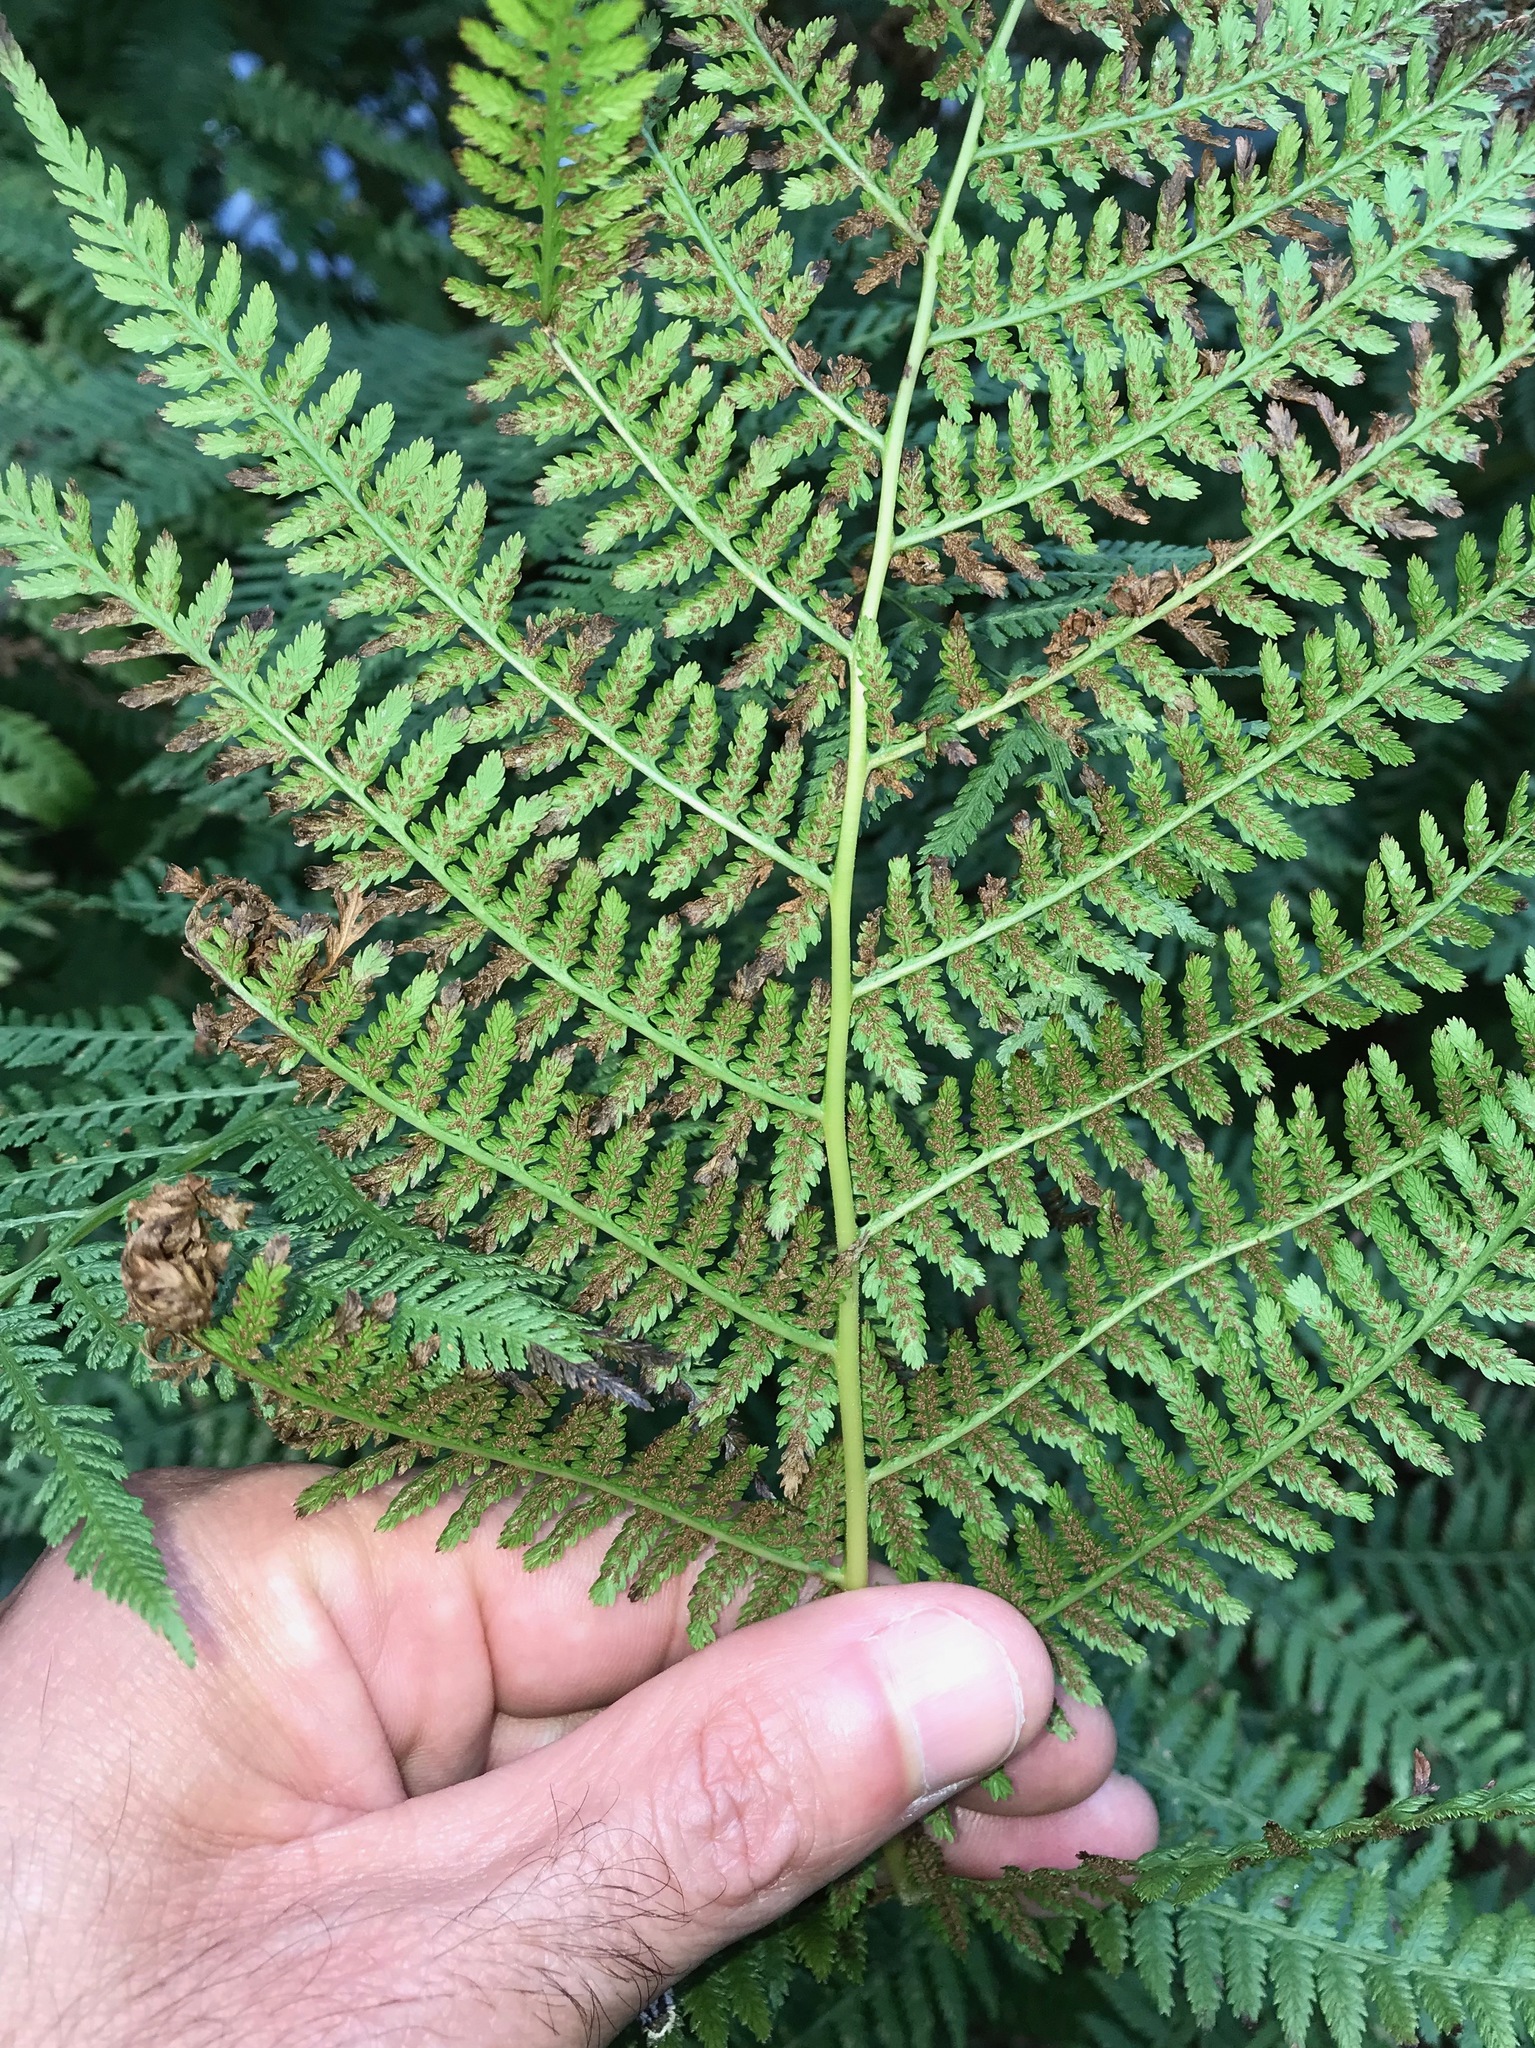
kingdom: Plantae
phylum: Tracheophyta
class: Polypodiopsida
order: Polypodiales
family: Athyriaceae
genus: Athyrium
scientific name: Athyrium filix-femina
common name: Lady fern
